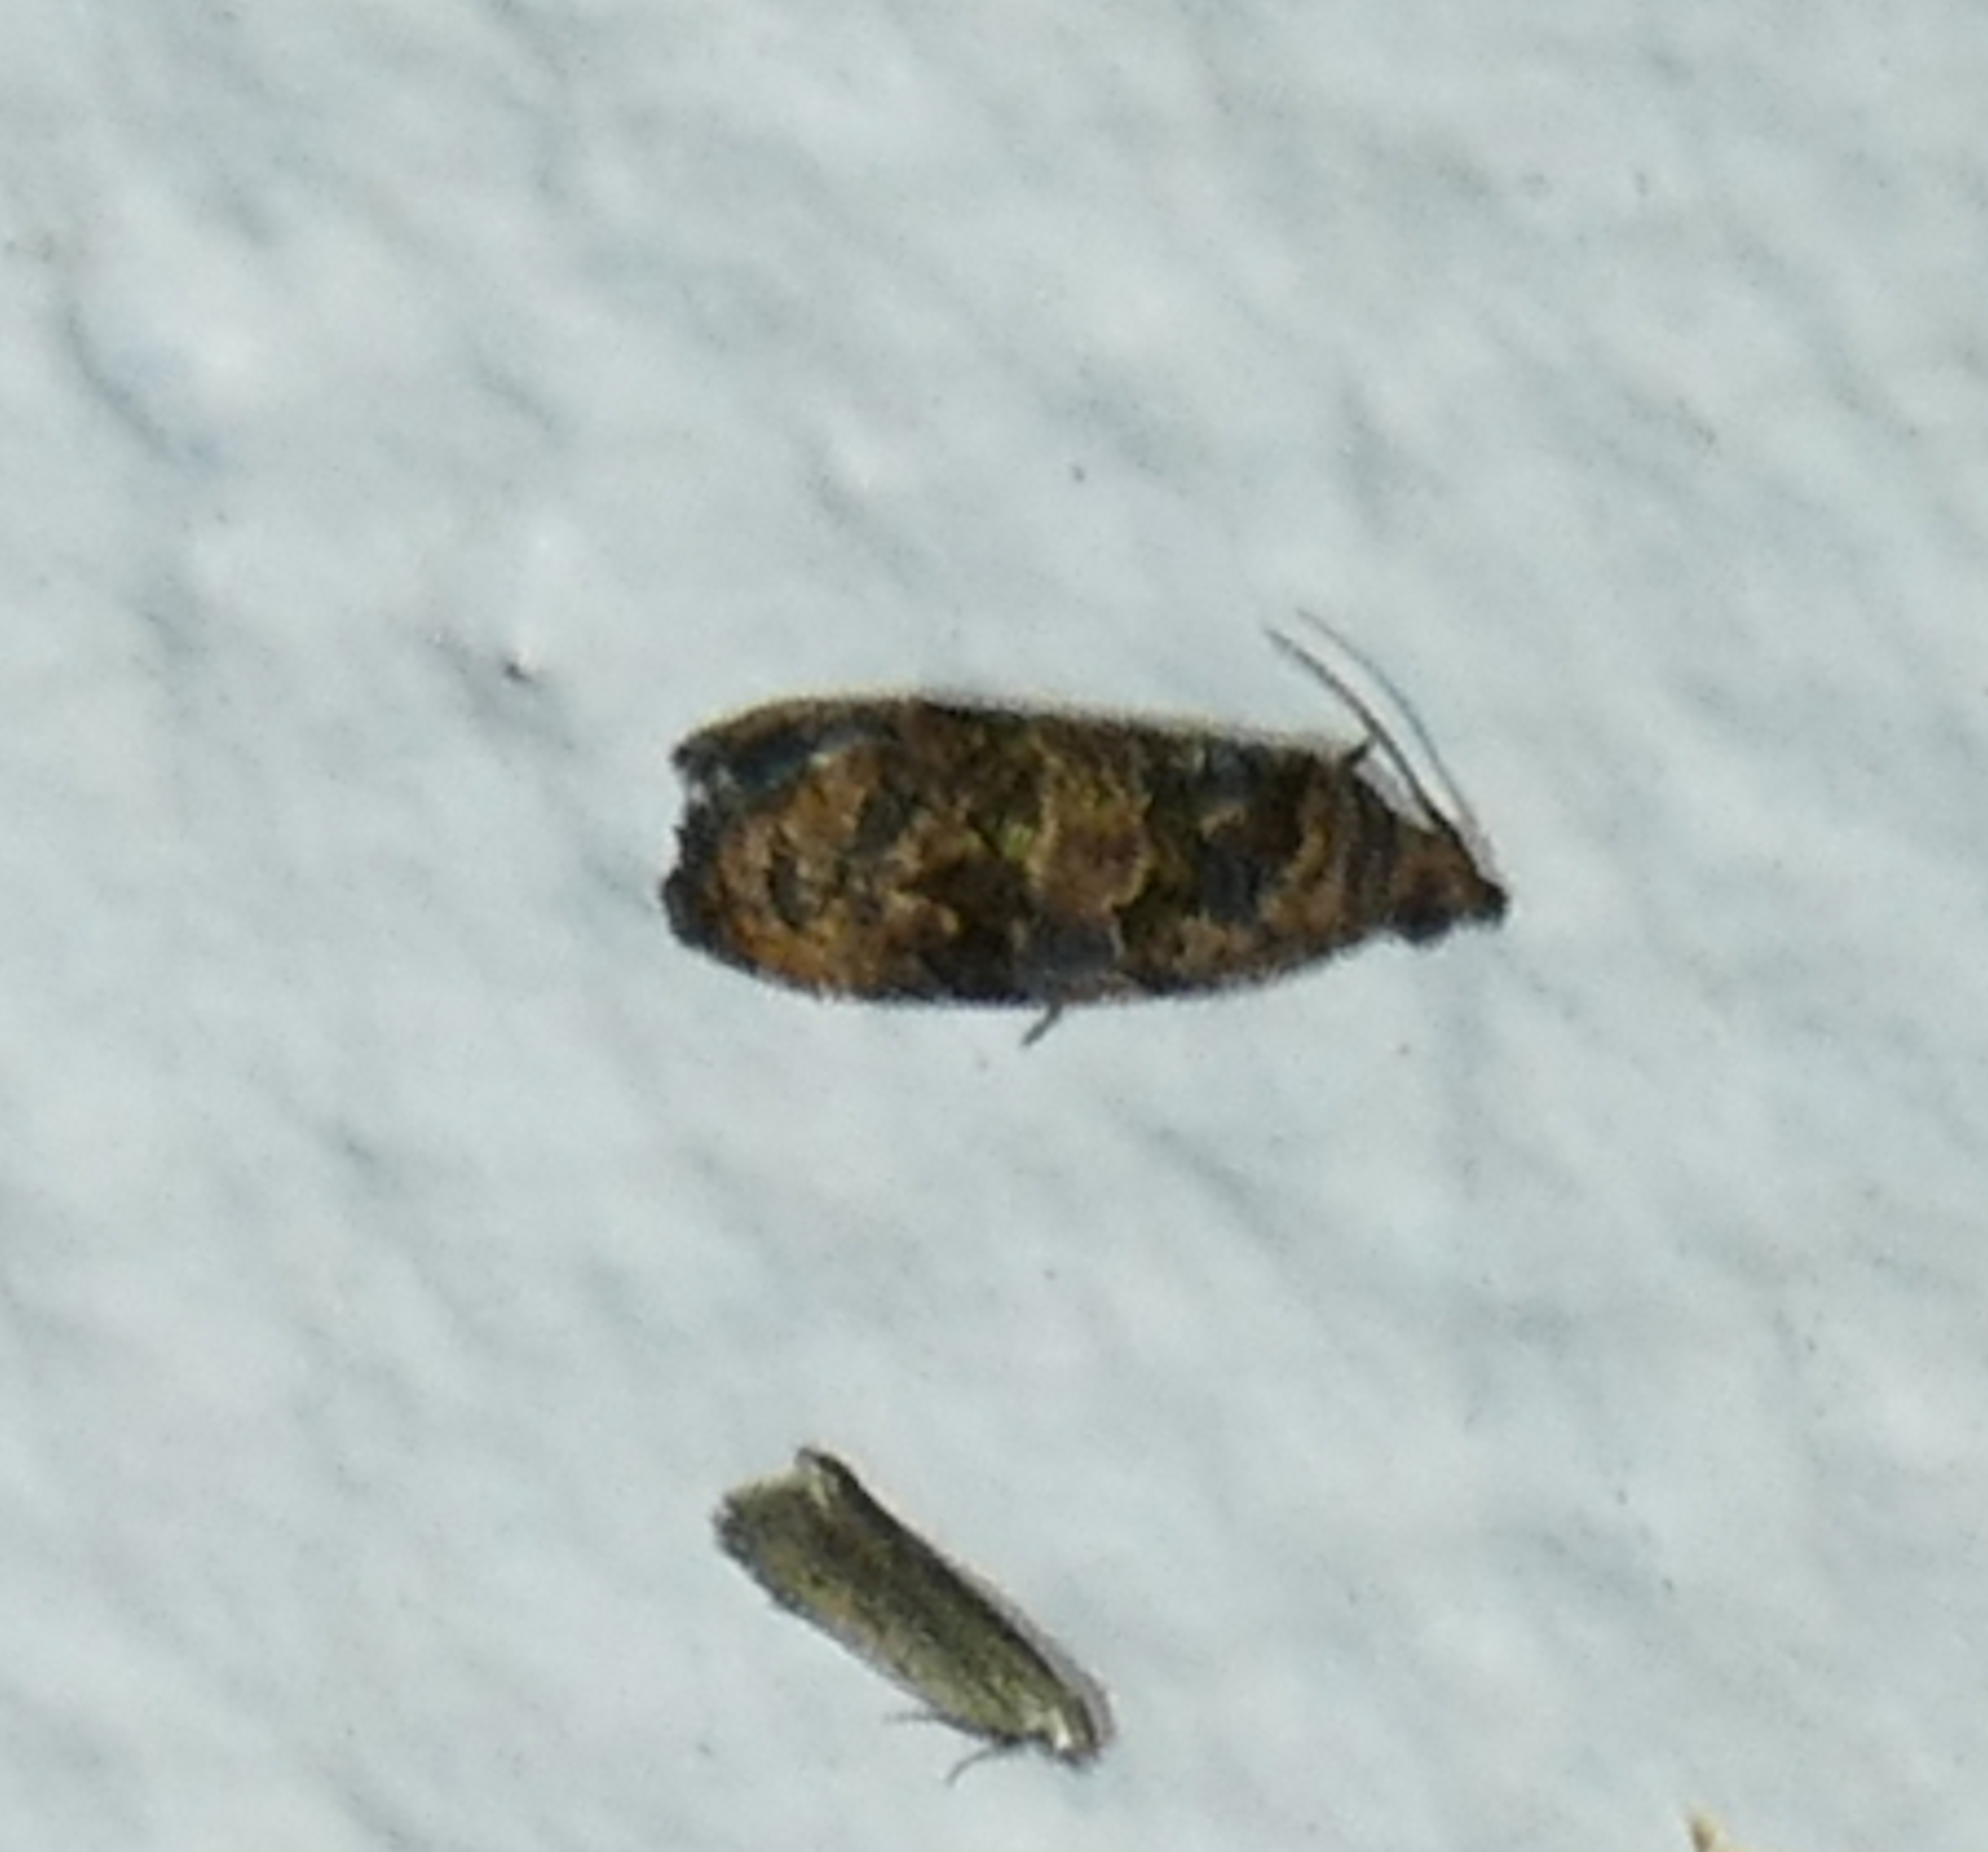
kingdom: Animalia
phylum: Arthropoda
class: Insecta
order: Lepidoptera
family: Tortricidae
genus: Endothenia
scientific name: Endothenia hebesana
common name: Verbena bud moth
